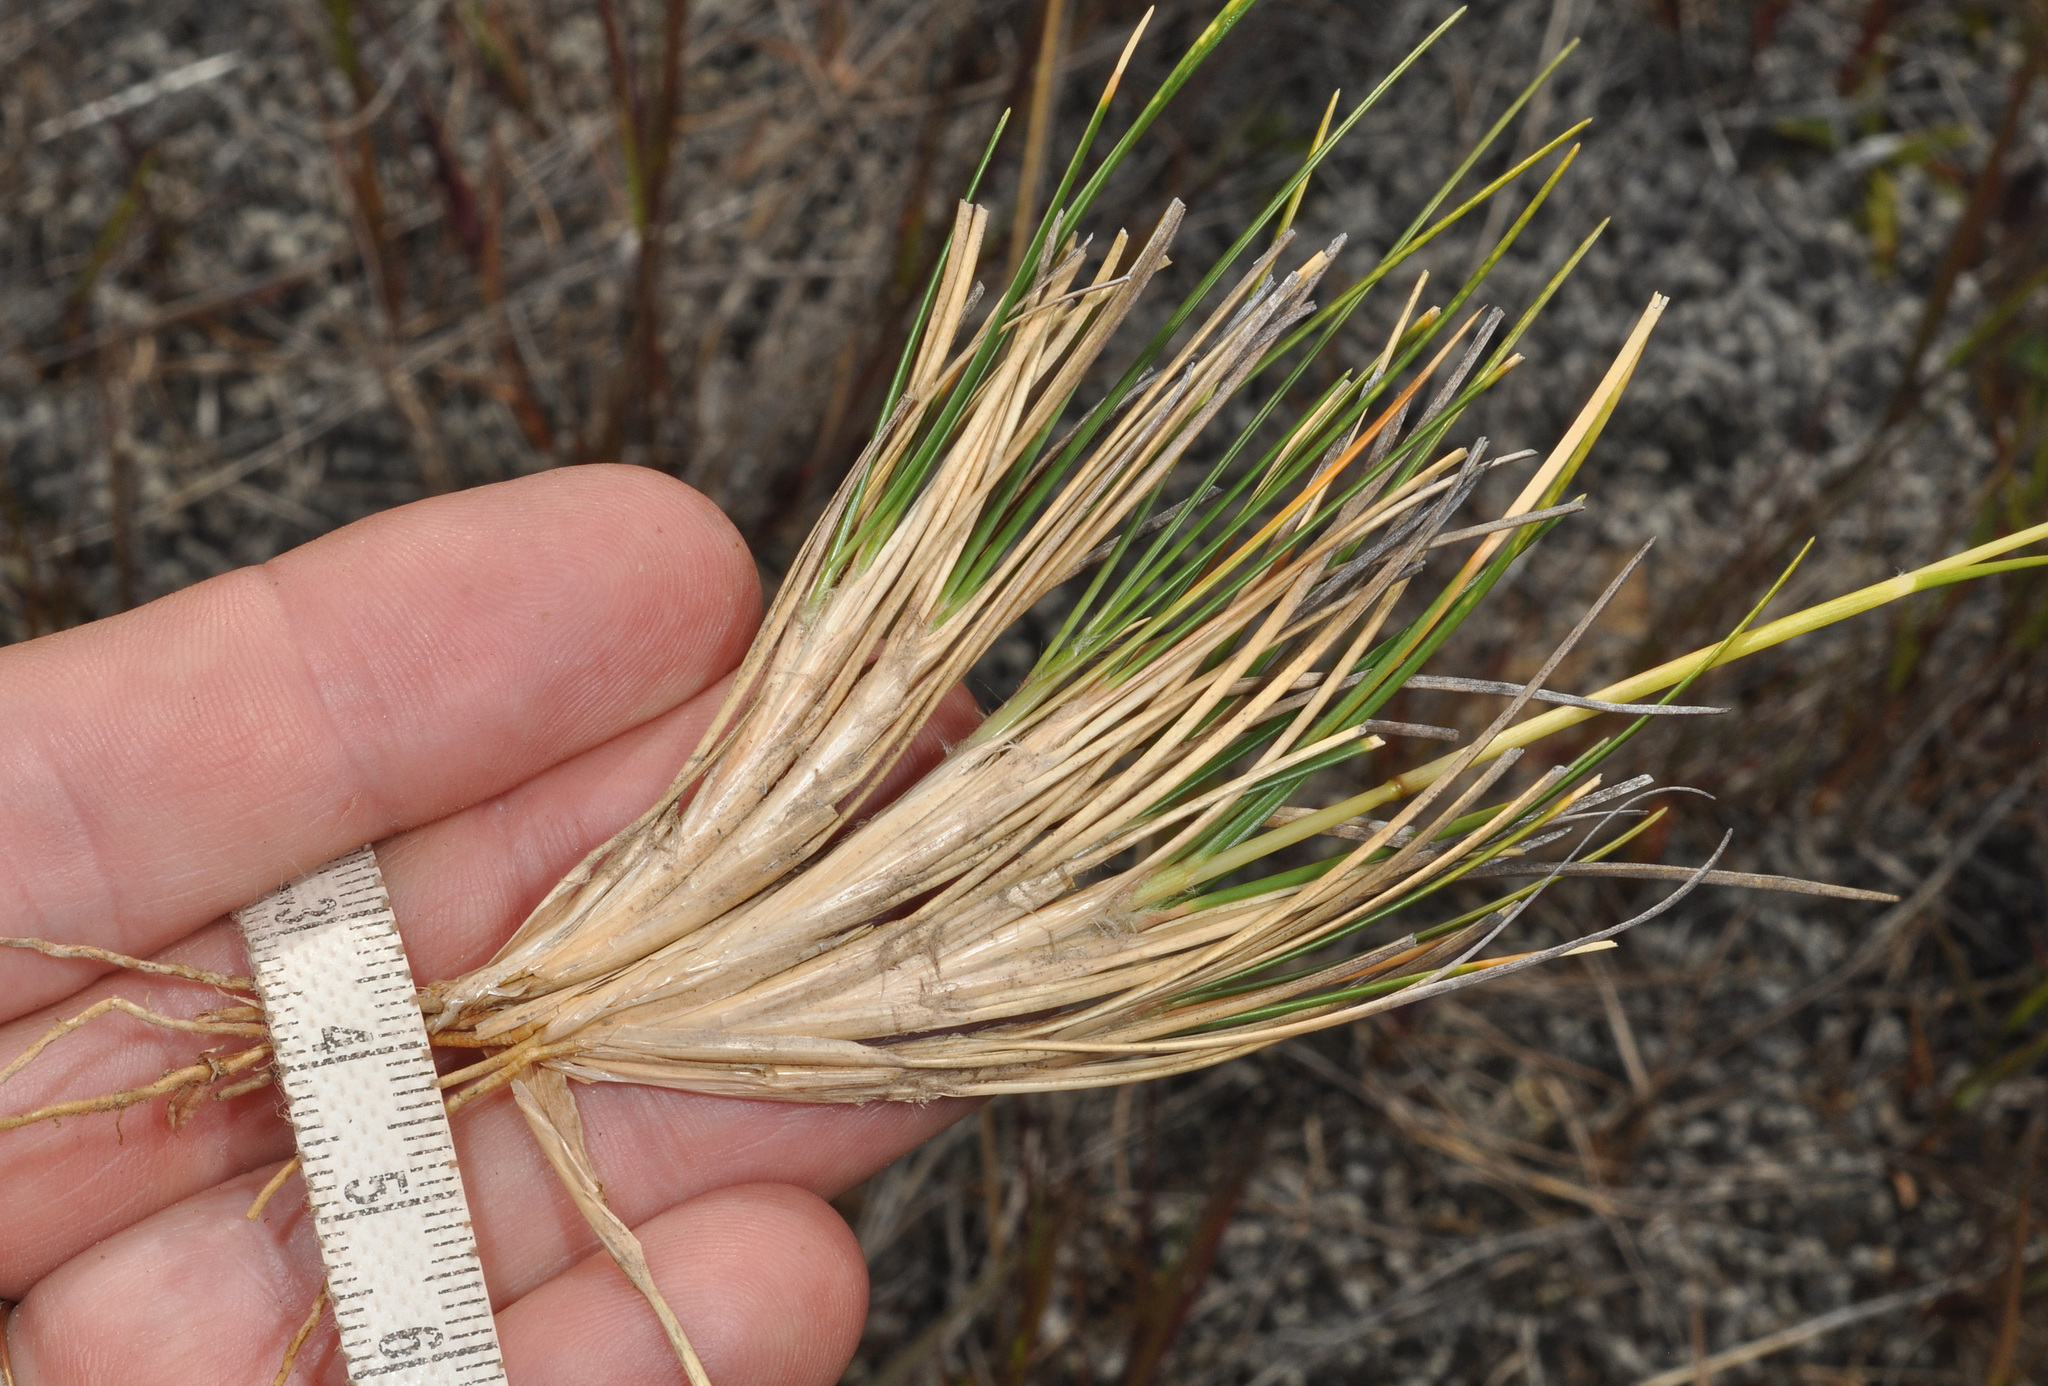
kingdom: Plantae
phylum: Tracheophyta
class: Liliopsida
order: Poales
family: Poaceae
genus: Chionochloa
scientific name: Chionochloa australis
